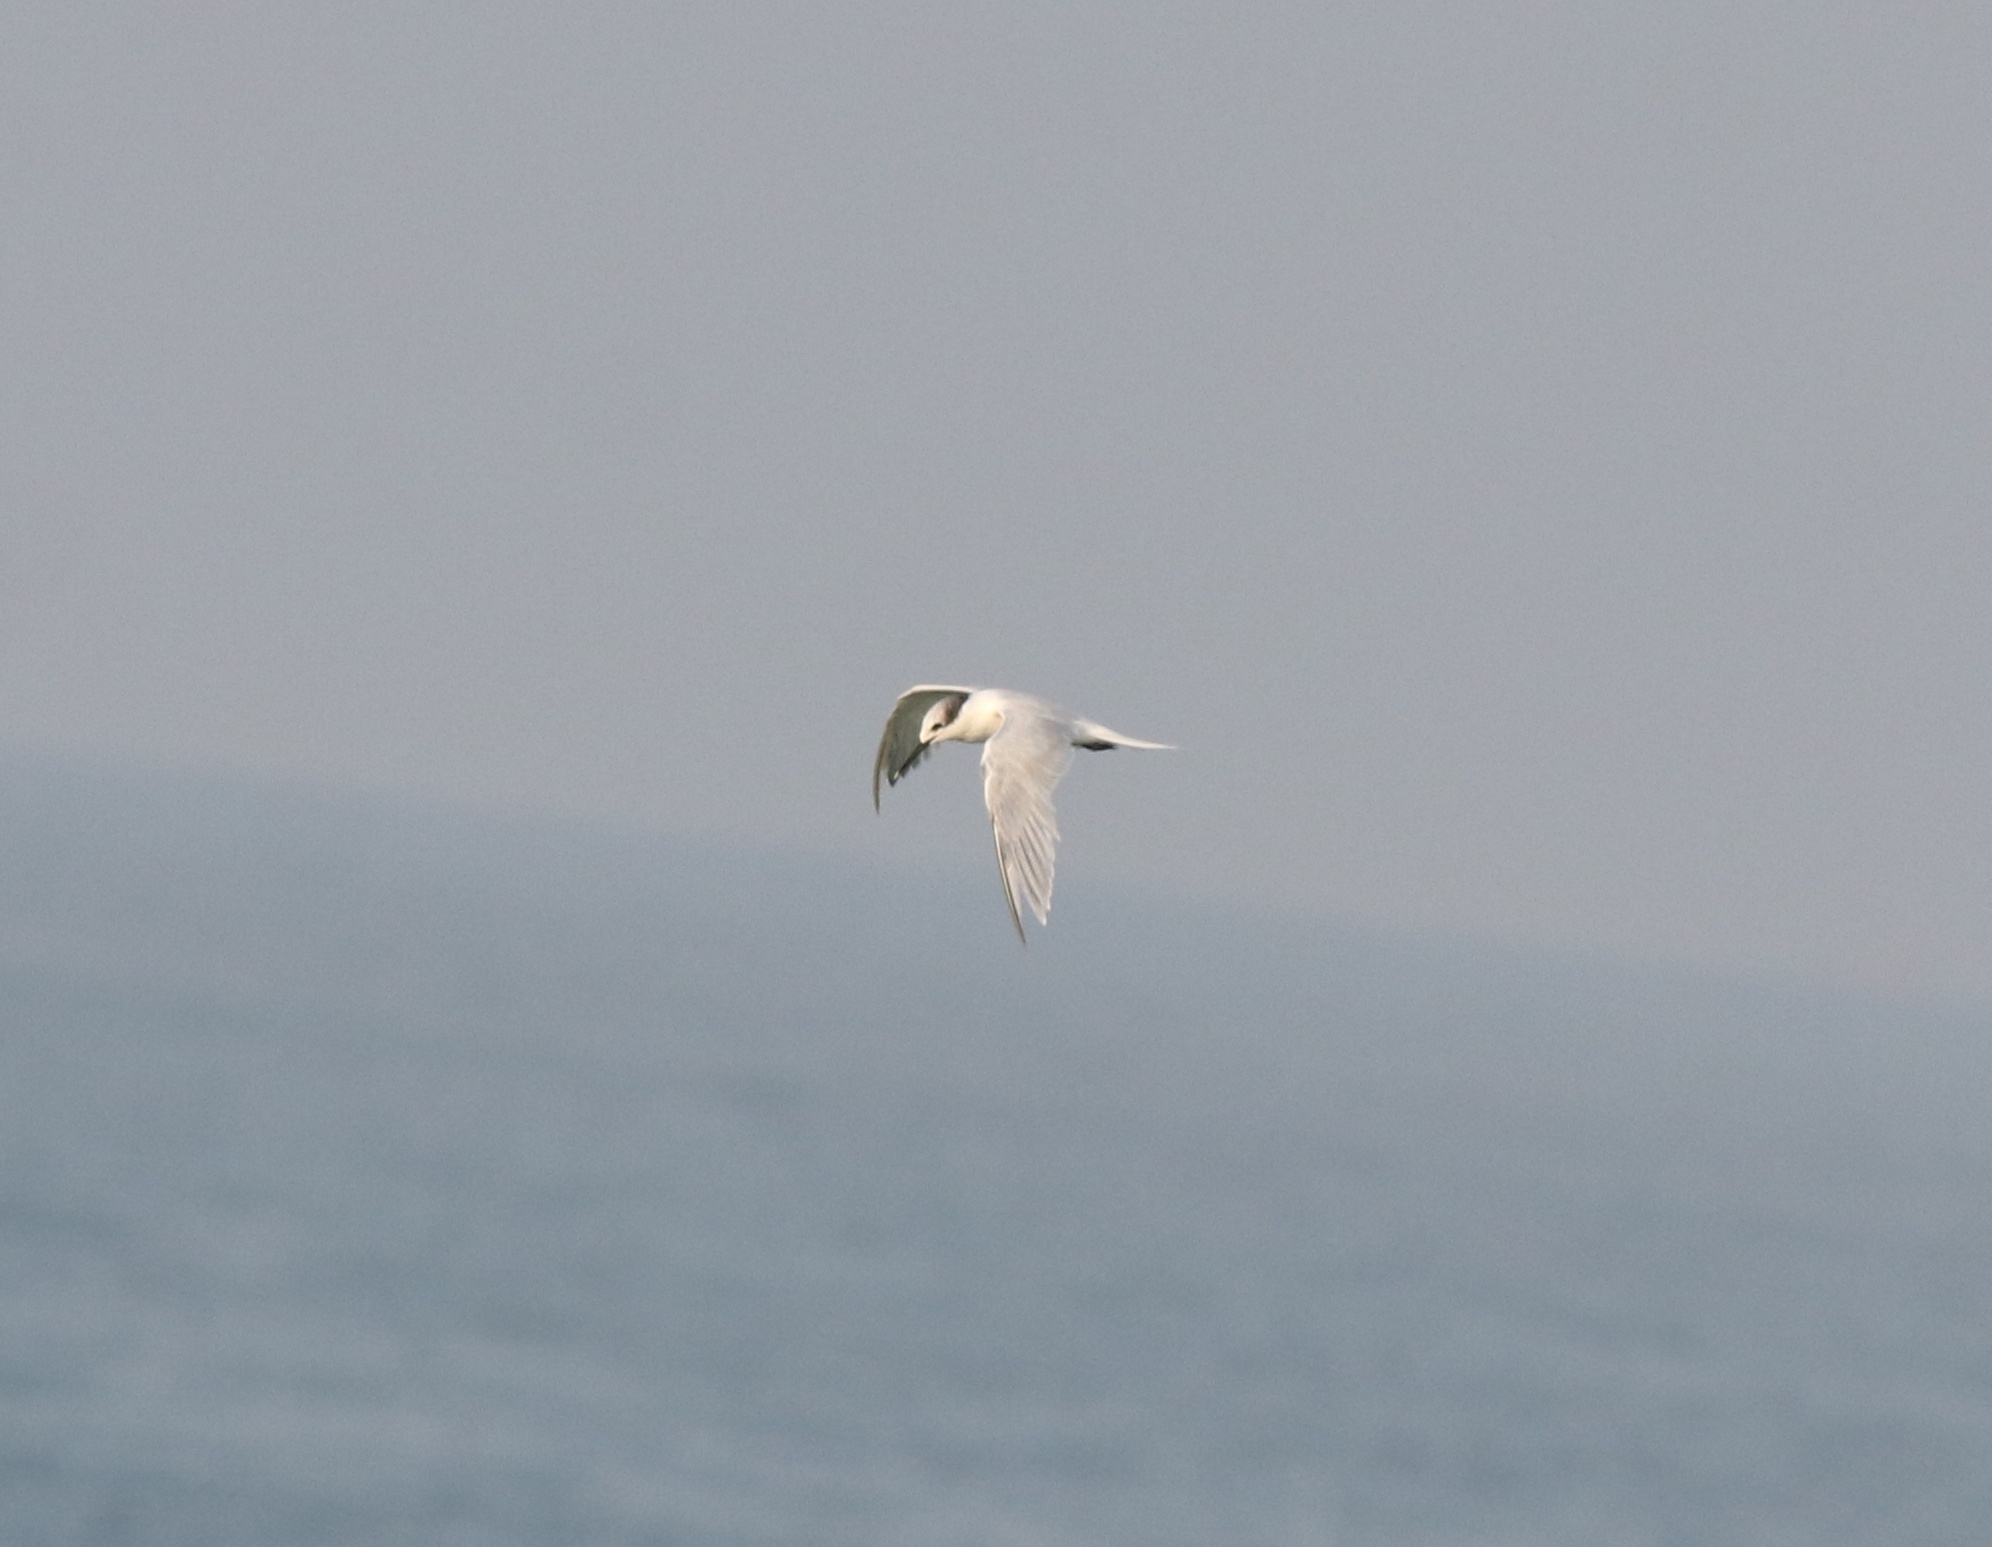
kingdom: Animalia
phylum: Chordata
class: Aves
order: Charadriiformes
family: Laridae
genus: Thalasseus
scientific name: Thalasseus sandvicensis
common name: Sandwich tern
